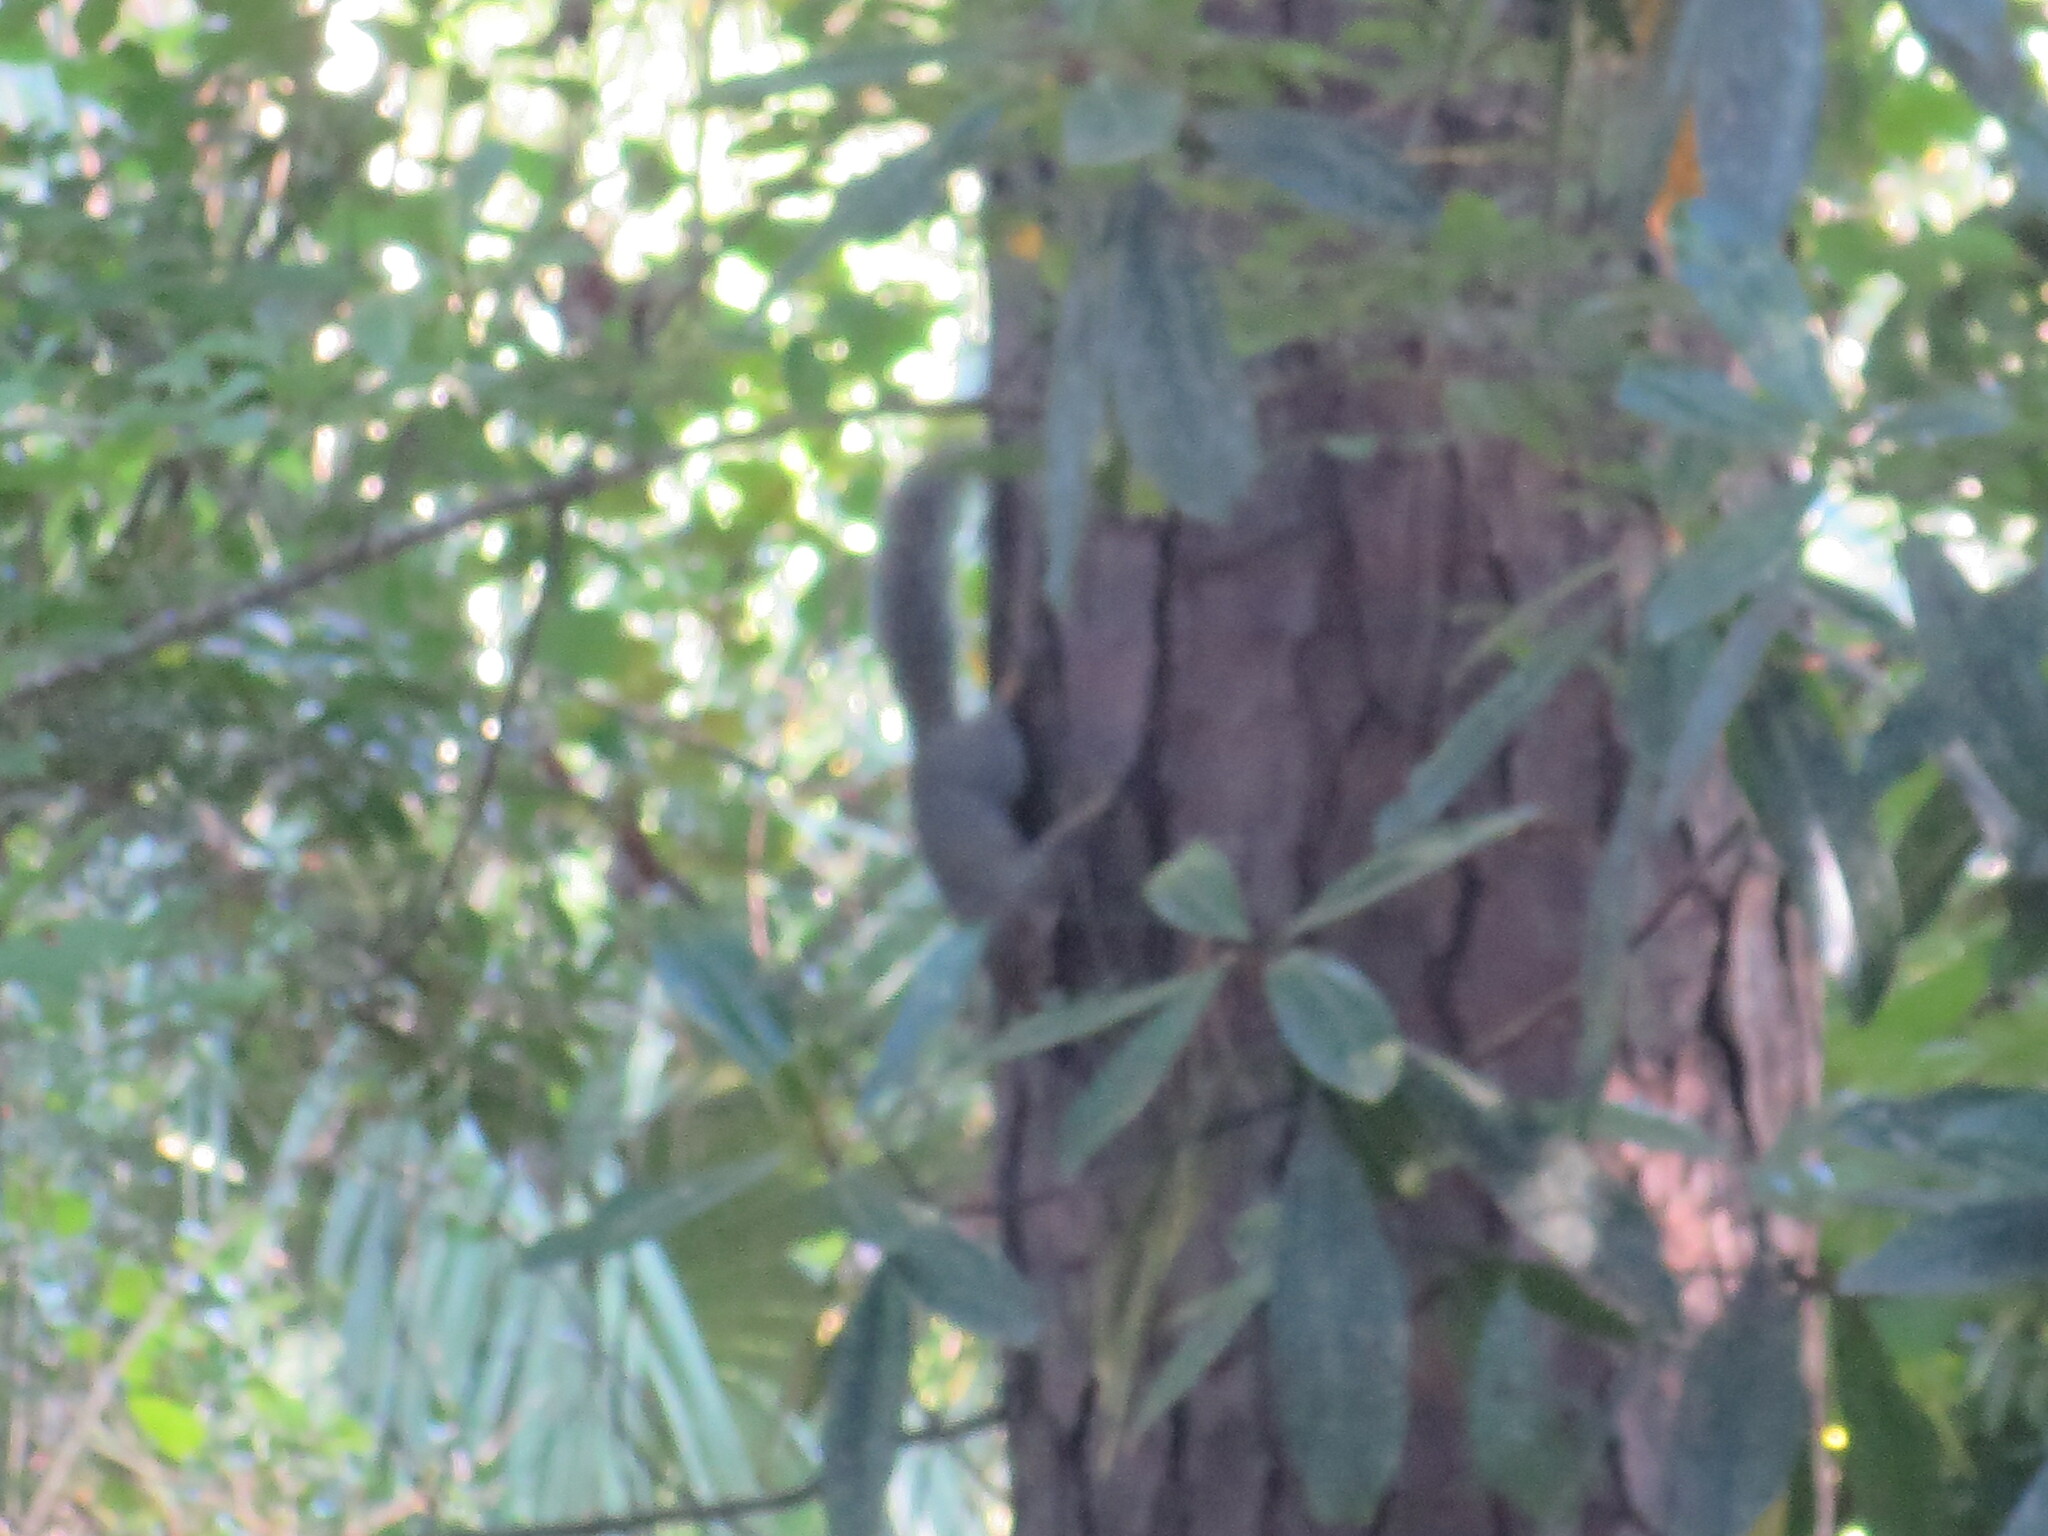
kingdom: Animalia
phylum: Chordata
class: Mammalia
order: Rodentia
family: Sciuridae
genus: Sciurus
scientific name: Sciurus carolinensis
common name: Eastern gray squirrel
